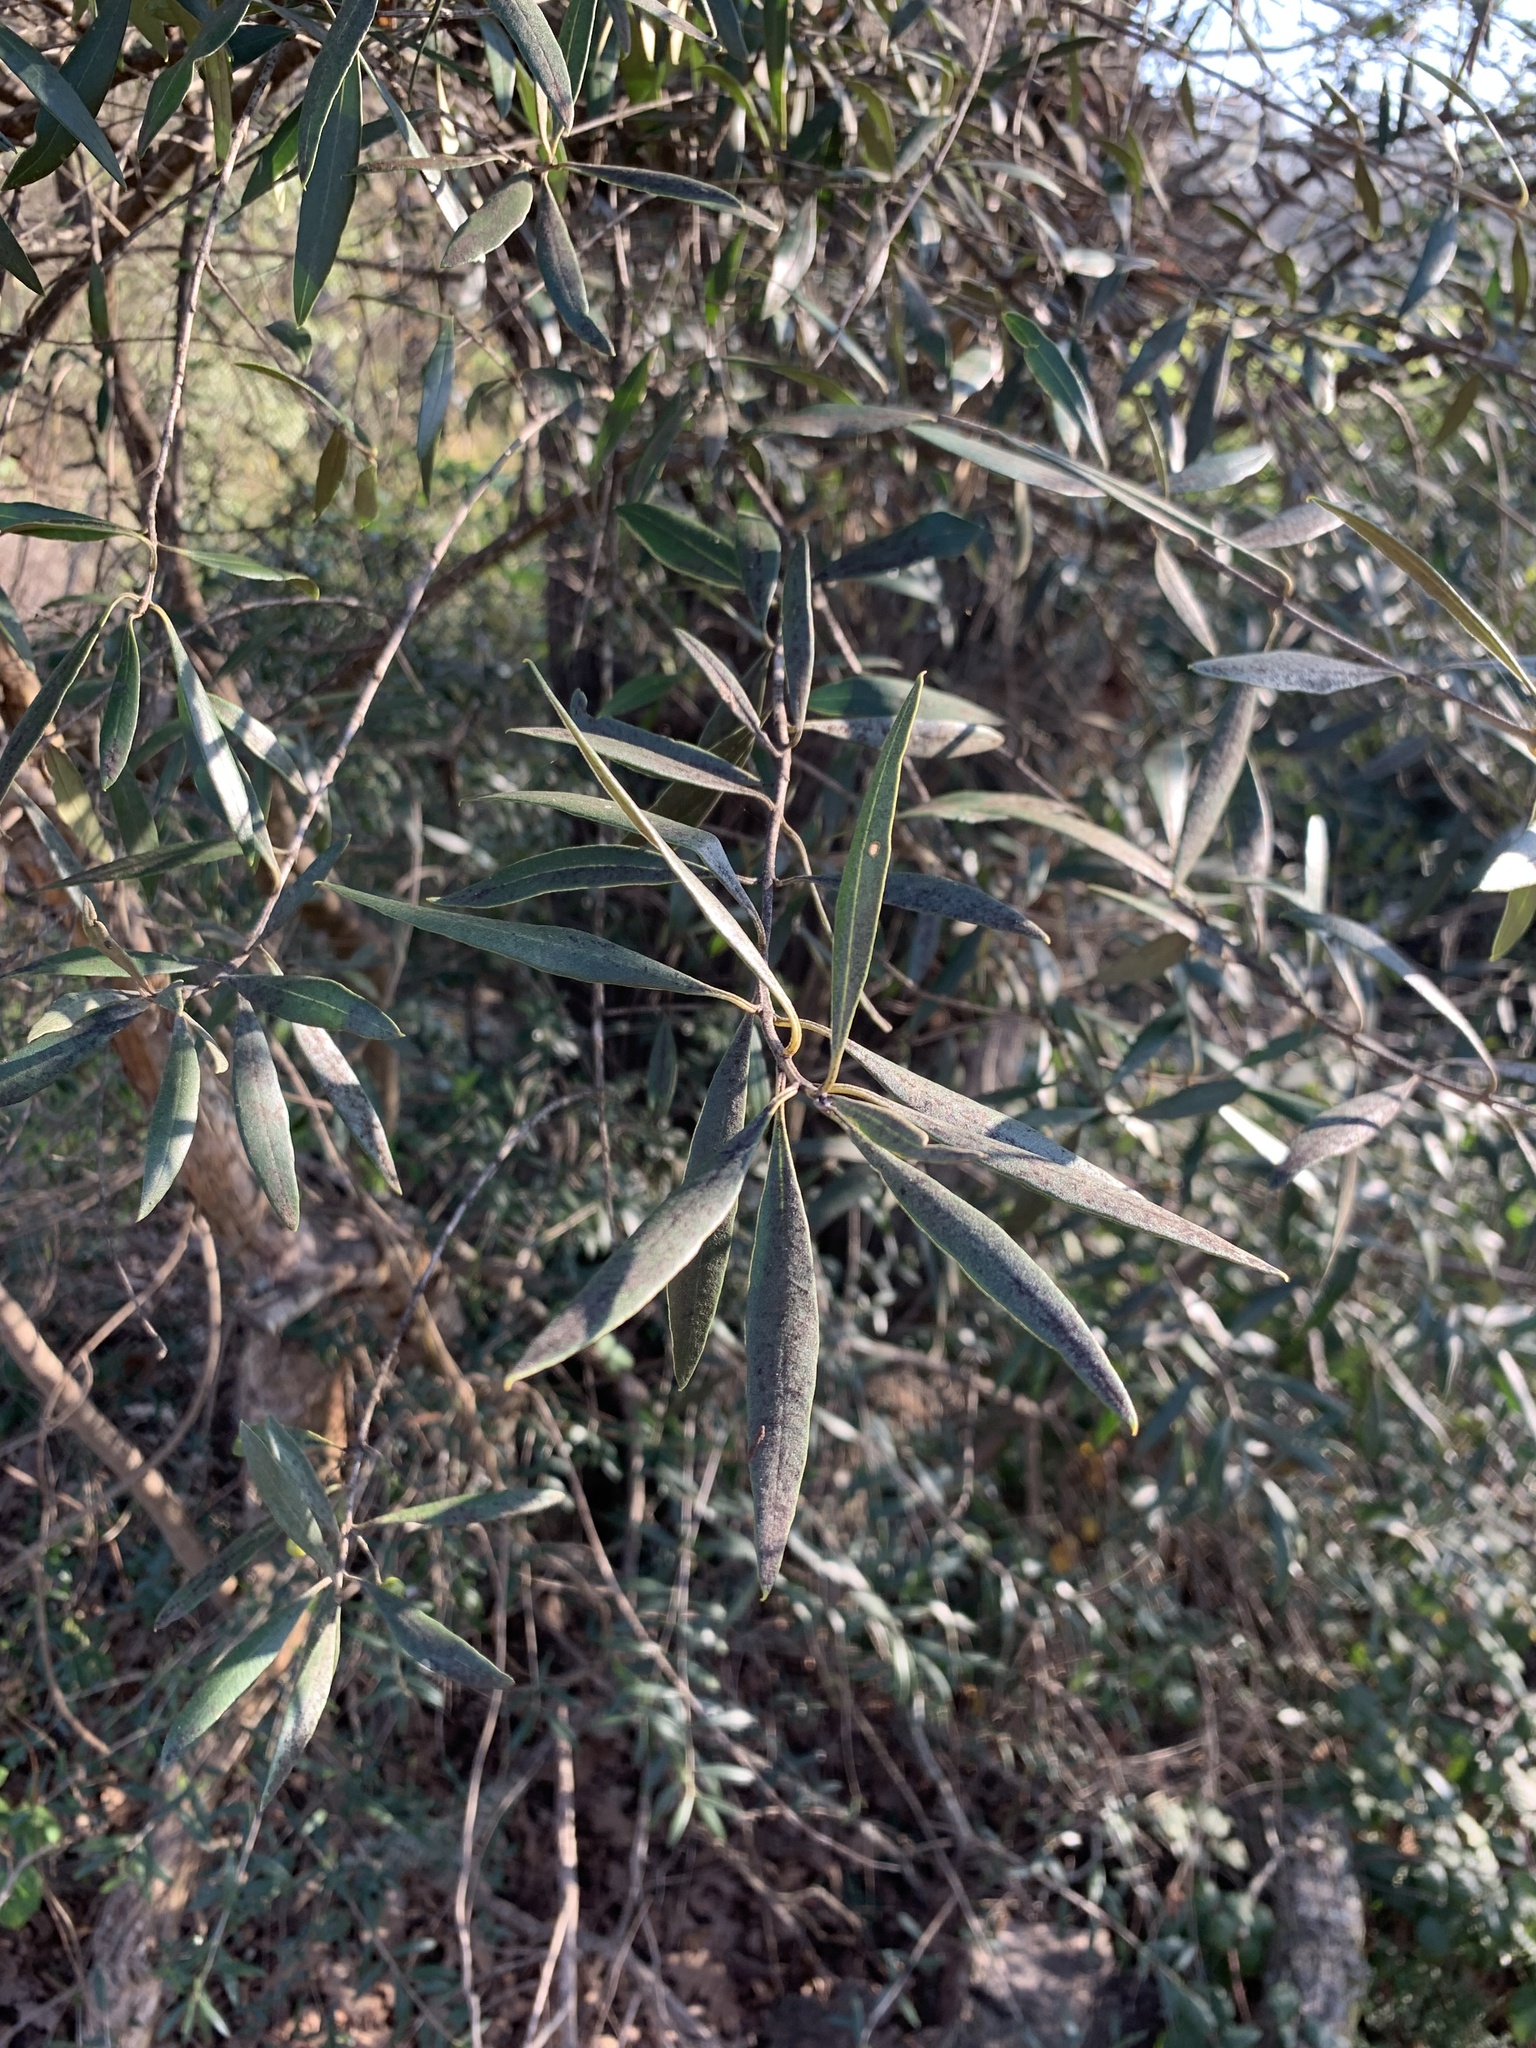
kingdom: Plantae
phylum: Tracheophyta
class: Magnoliopsida
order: Lamiales
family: Oleaceae
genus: Olea
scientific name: Olea europaea
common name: Olive
